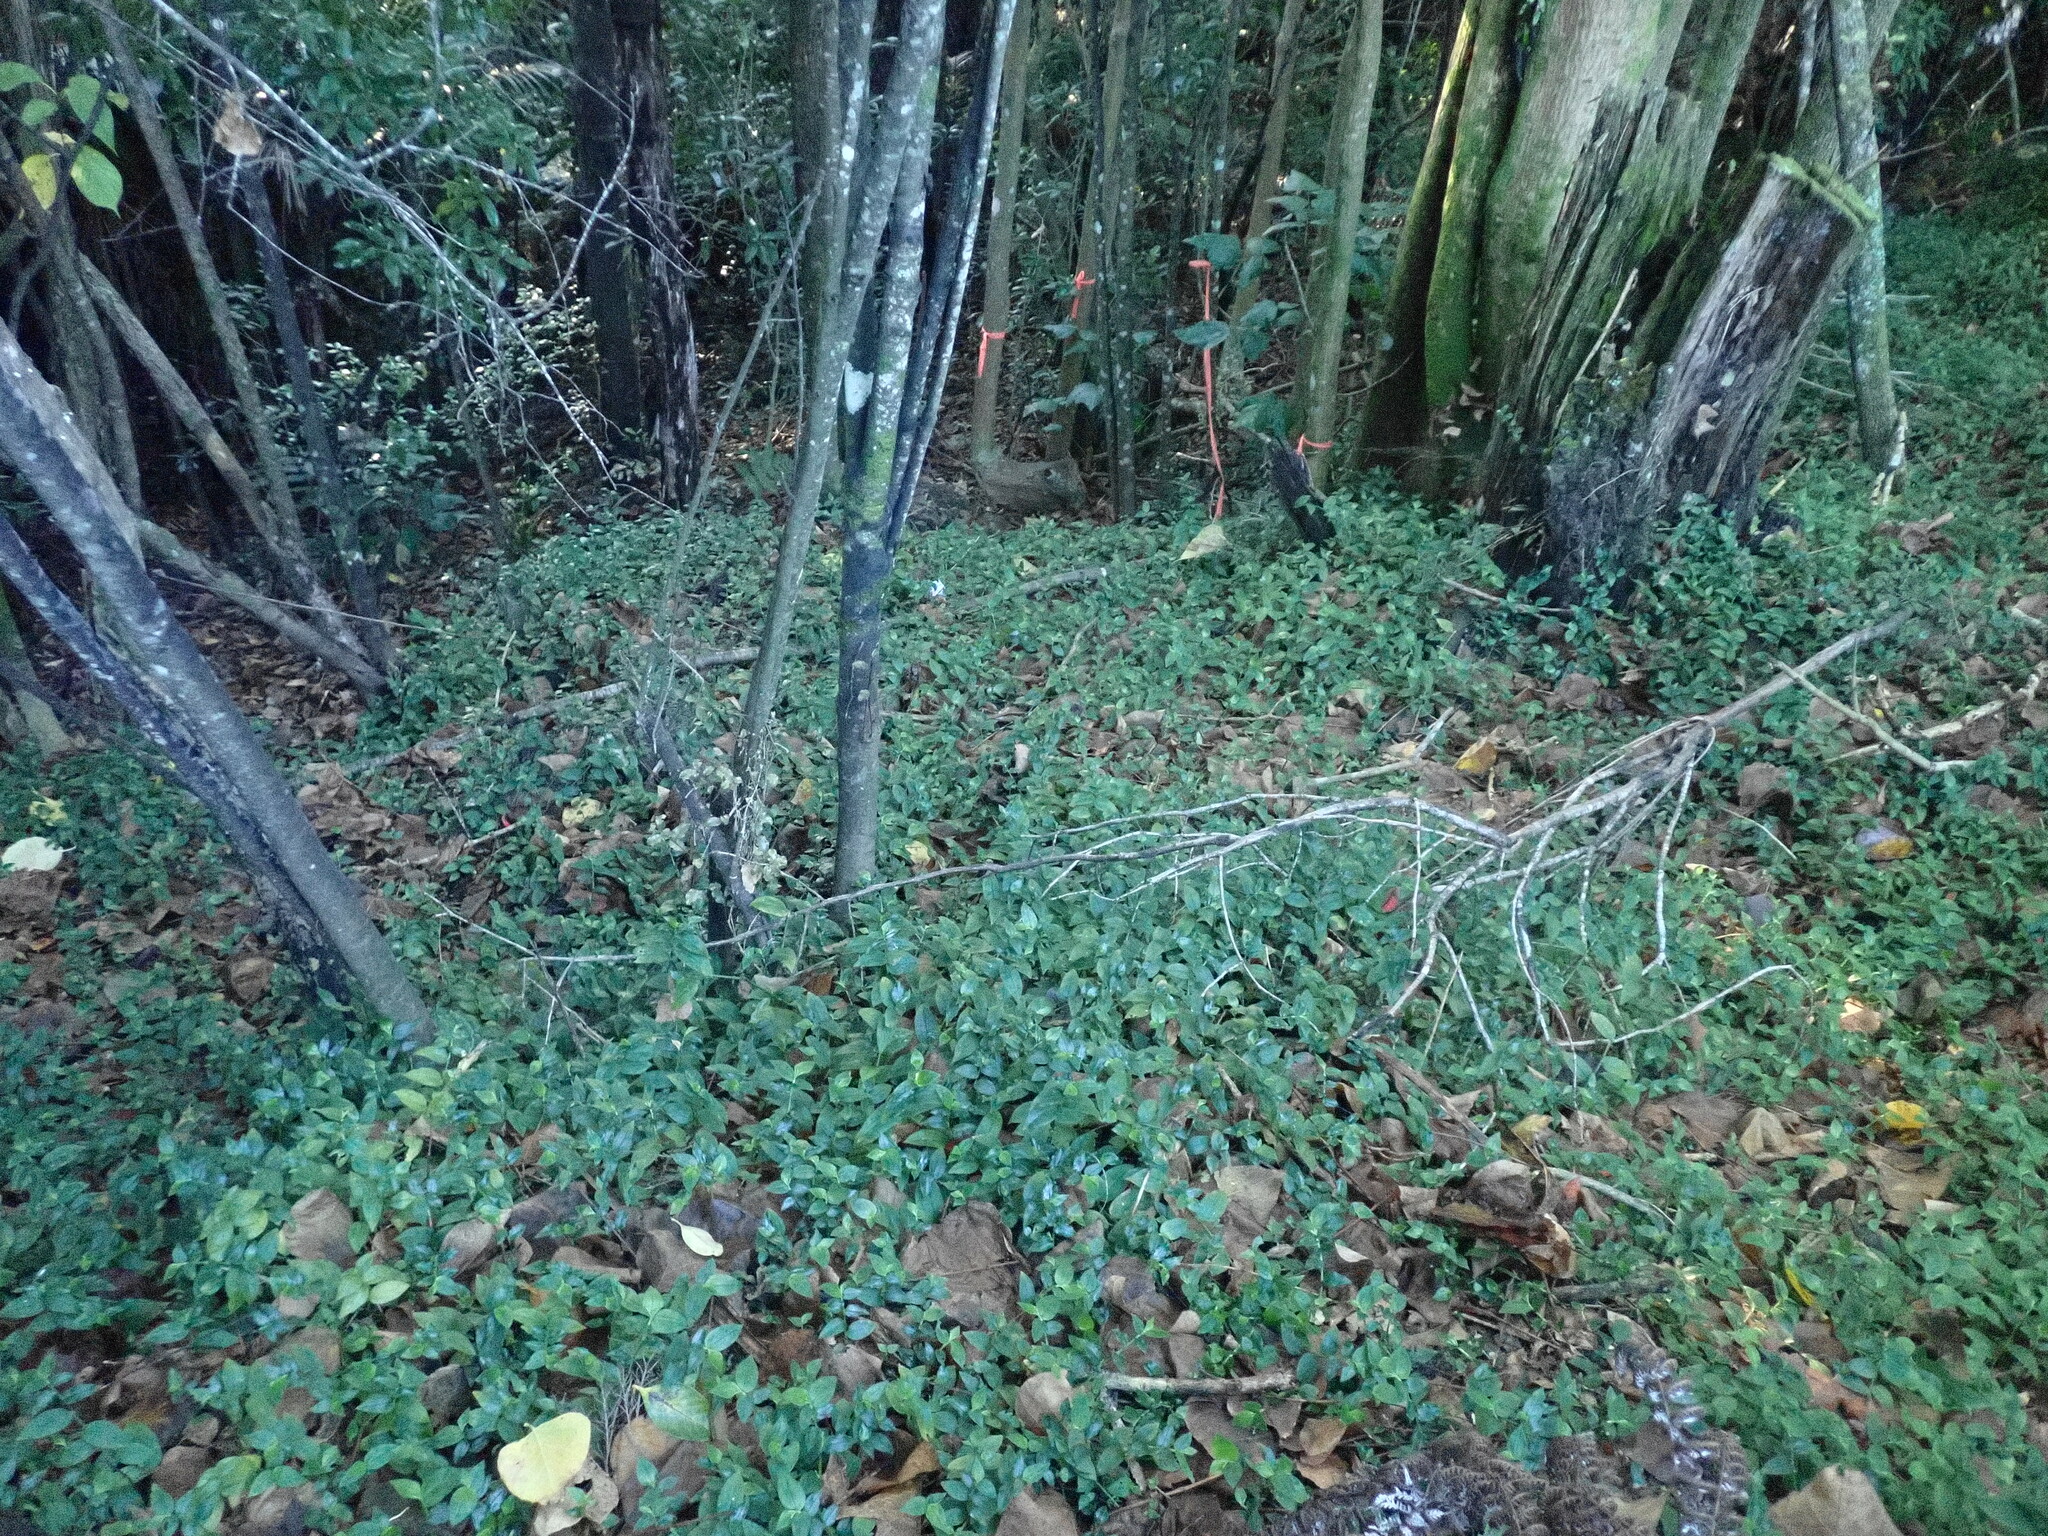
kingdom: Plantae
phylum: Tracheophyta
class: Liliopsida
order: Commelinales
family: Commelinaceae
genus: Tradescantia
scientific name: Tradescantia fluminensis
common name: Wandering-jew
